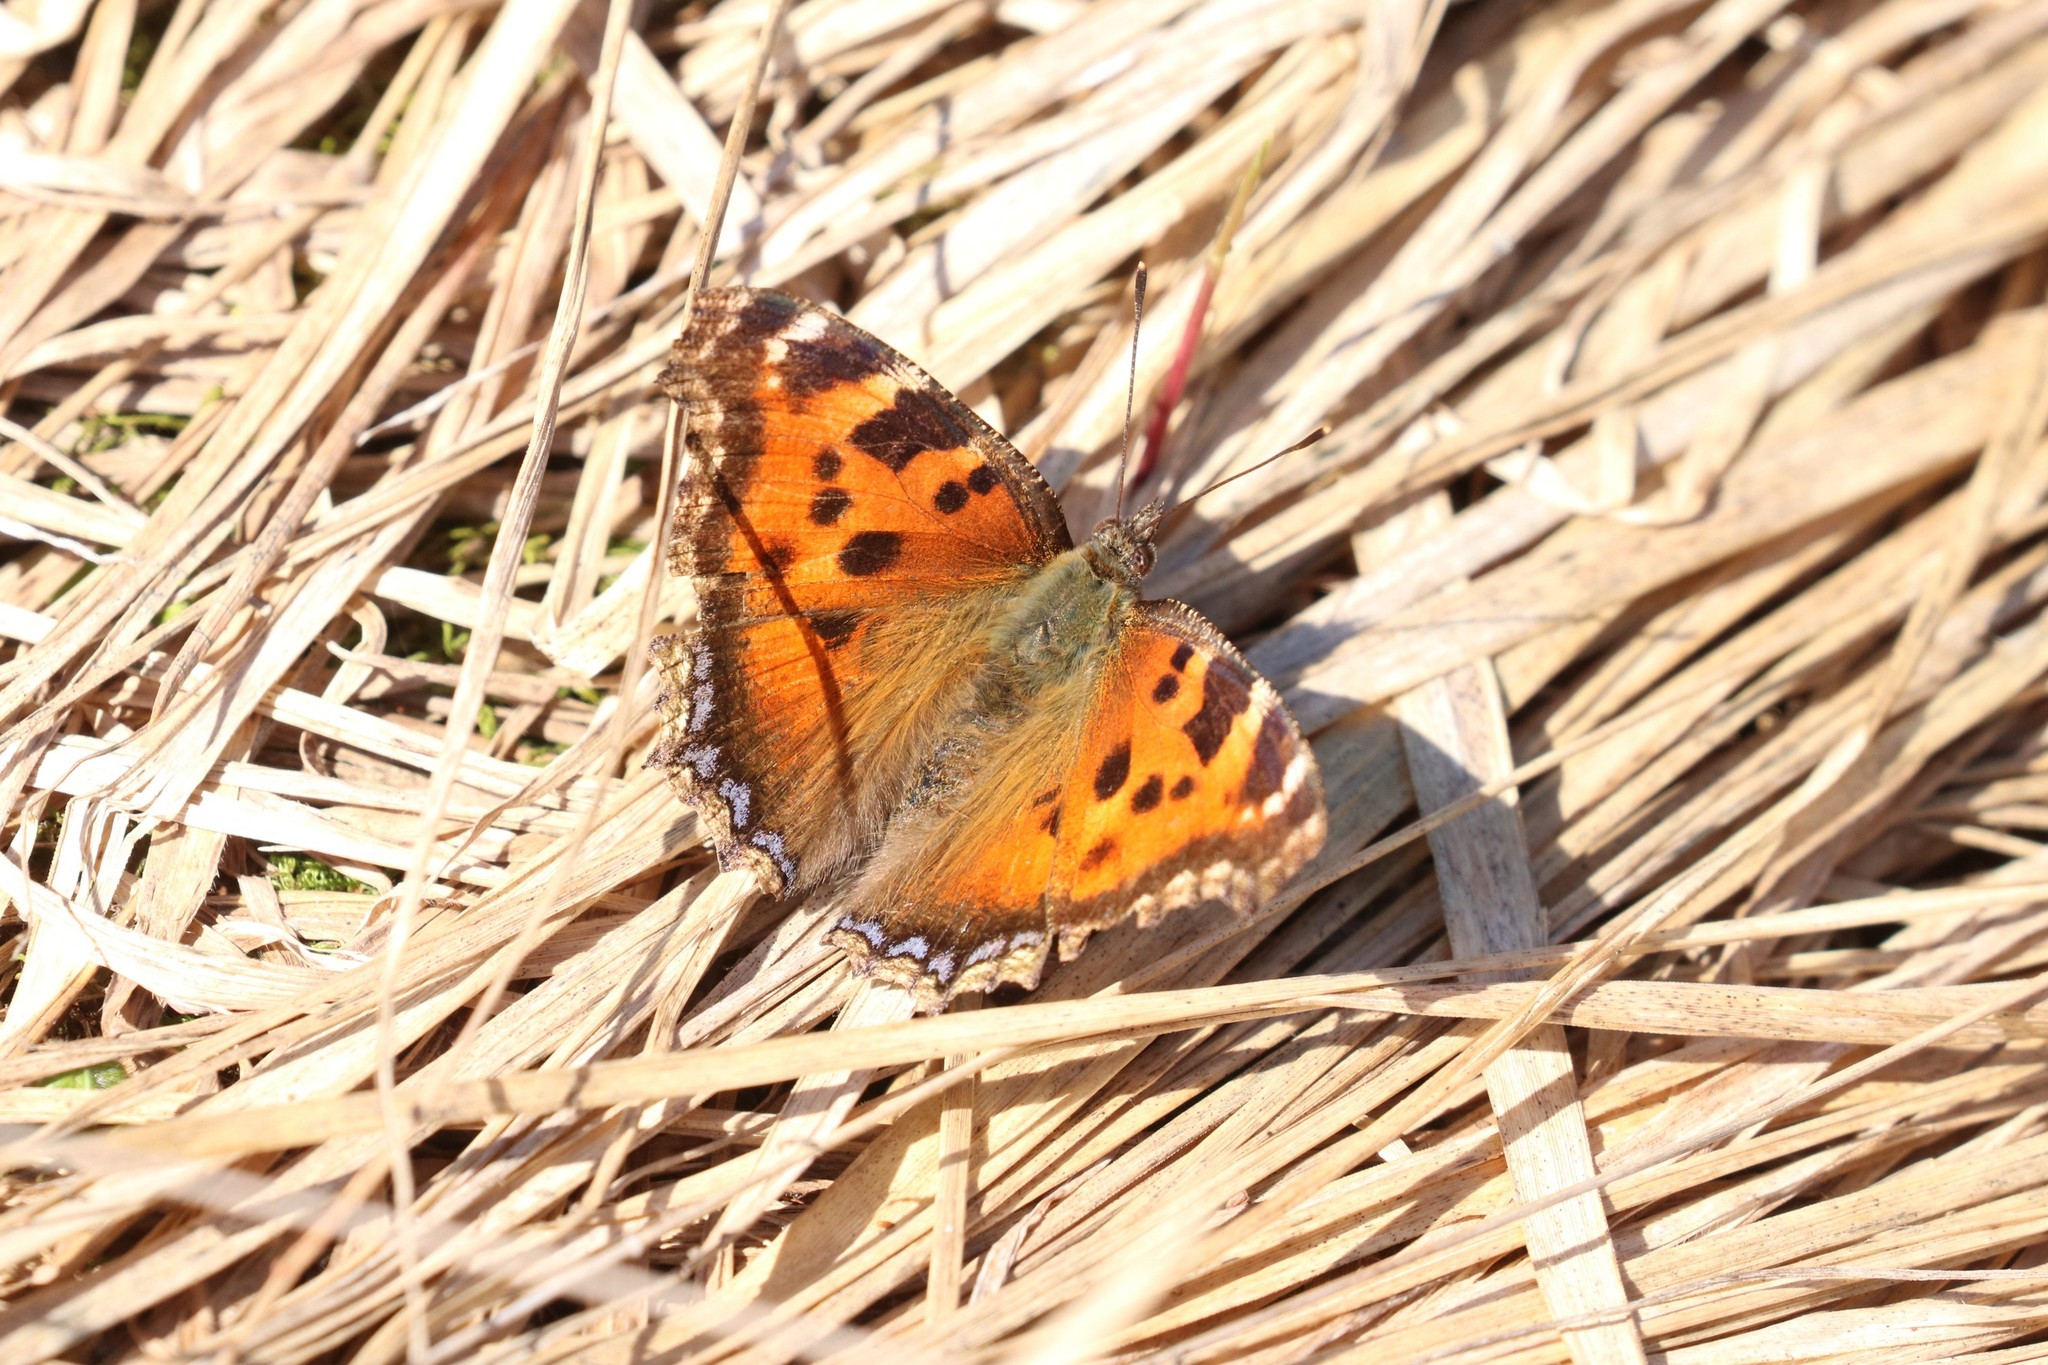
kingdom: Animalia
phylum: Arthropoda
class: Insecta
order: Lepidoptera
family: Nymphalidae
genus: Nymphalis
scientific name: Nymphalis xanthomelas
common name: Scarce tortoiseshell
